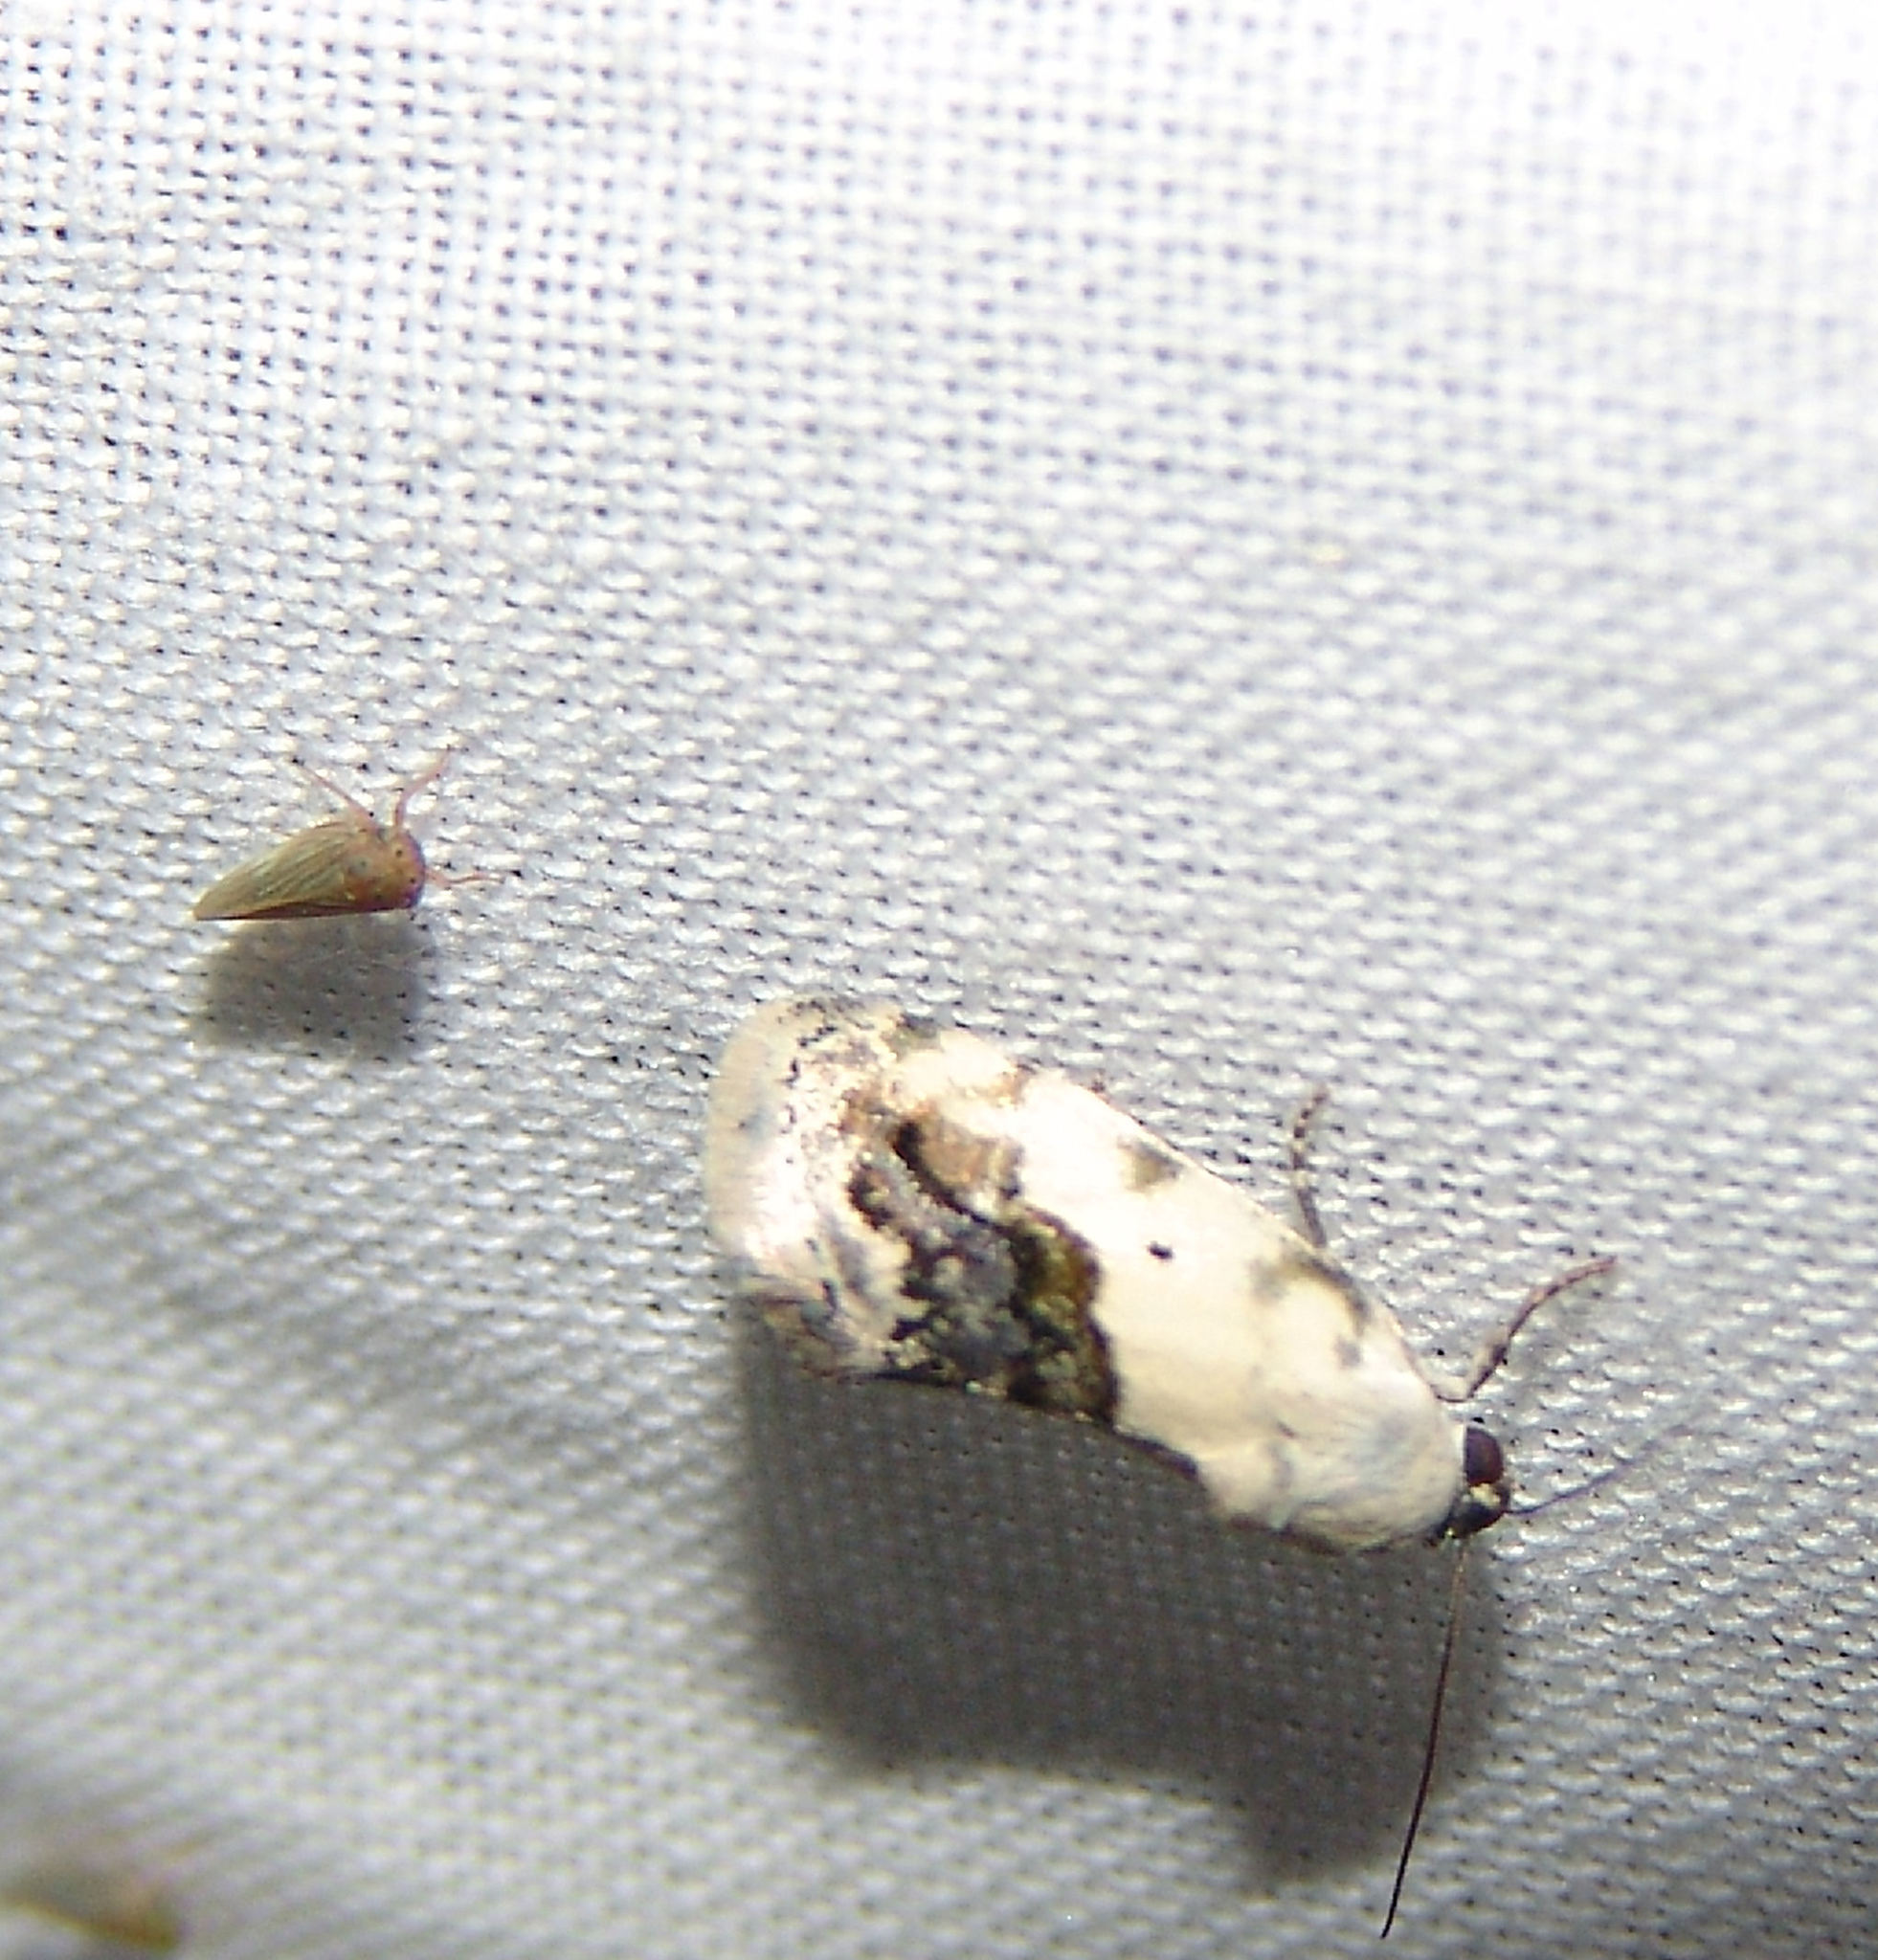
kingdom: Animalia
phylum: Arthropoda
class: Insecta
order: Lepidoptera
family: Noctuidae
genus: Acontia
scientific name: Acontia erastrioides
